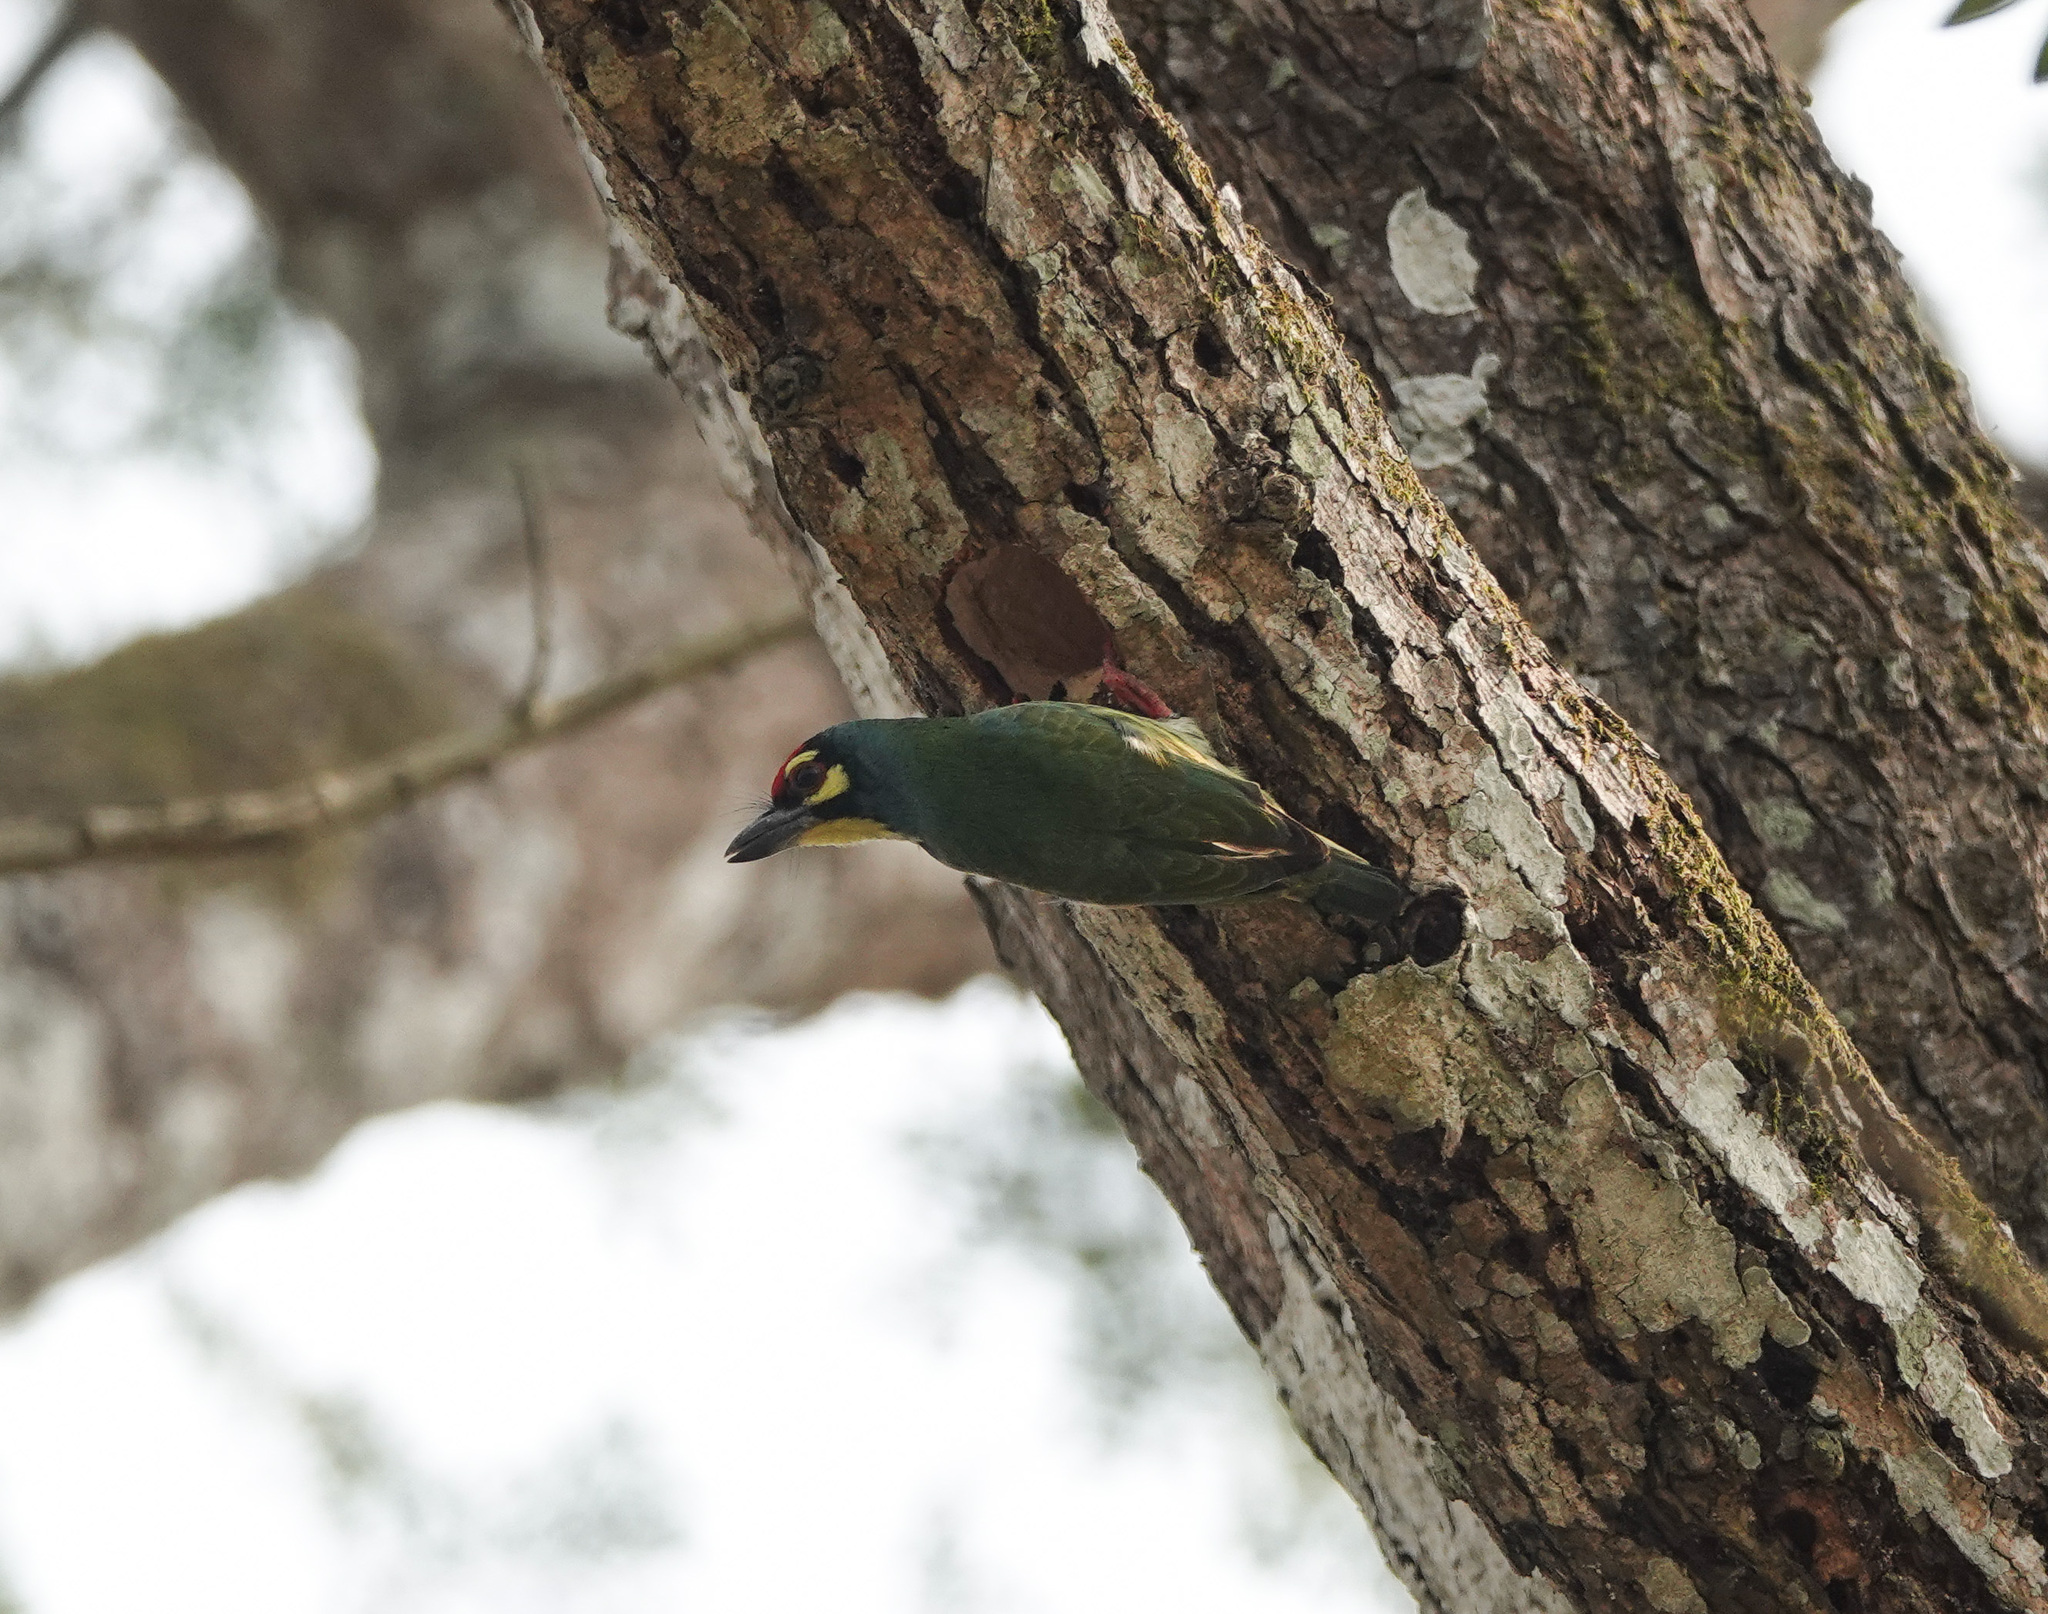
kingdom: Animalia
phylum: Chordata
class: Aves
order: Piciformes
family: Megalaimidae
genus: Psilopogon
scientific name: Psilopogon haemacephalus
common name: Coppersmith barbet
